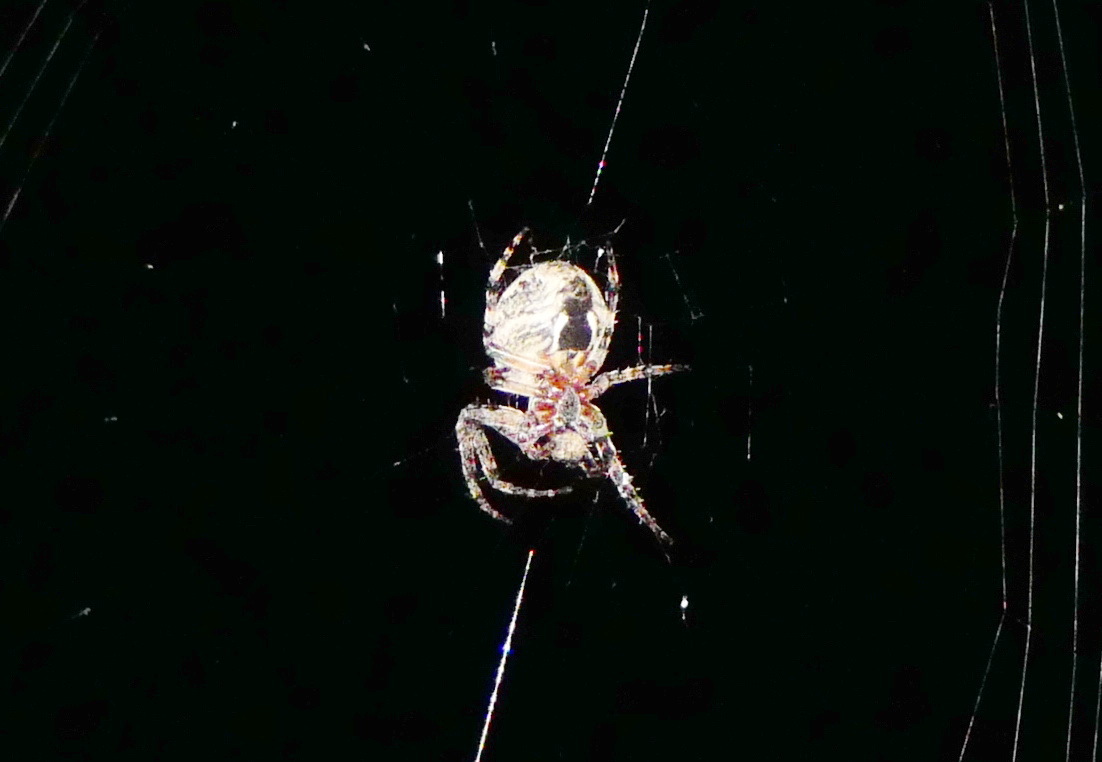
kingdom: Animalia
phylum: Arthropoda
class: Arachnida
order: Araneae
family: Araneidae
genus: Larinioides
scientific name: Larinioides patagiatus
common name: Ornamental orbweaver
